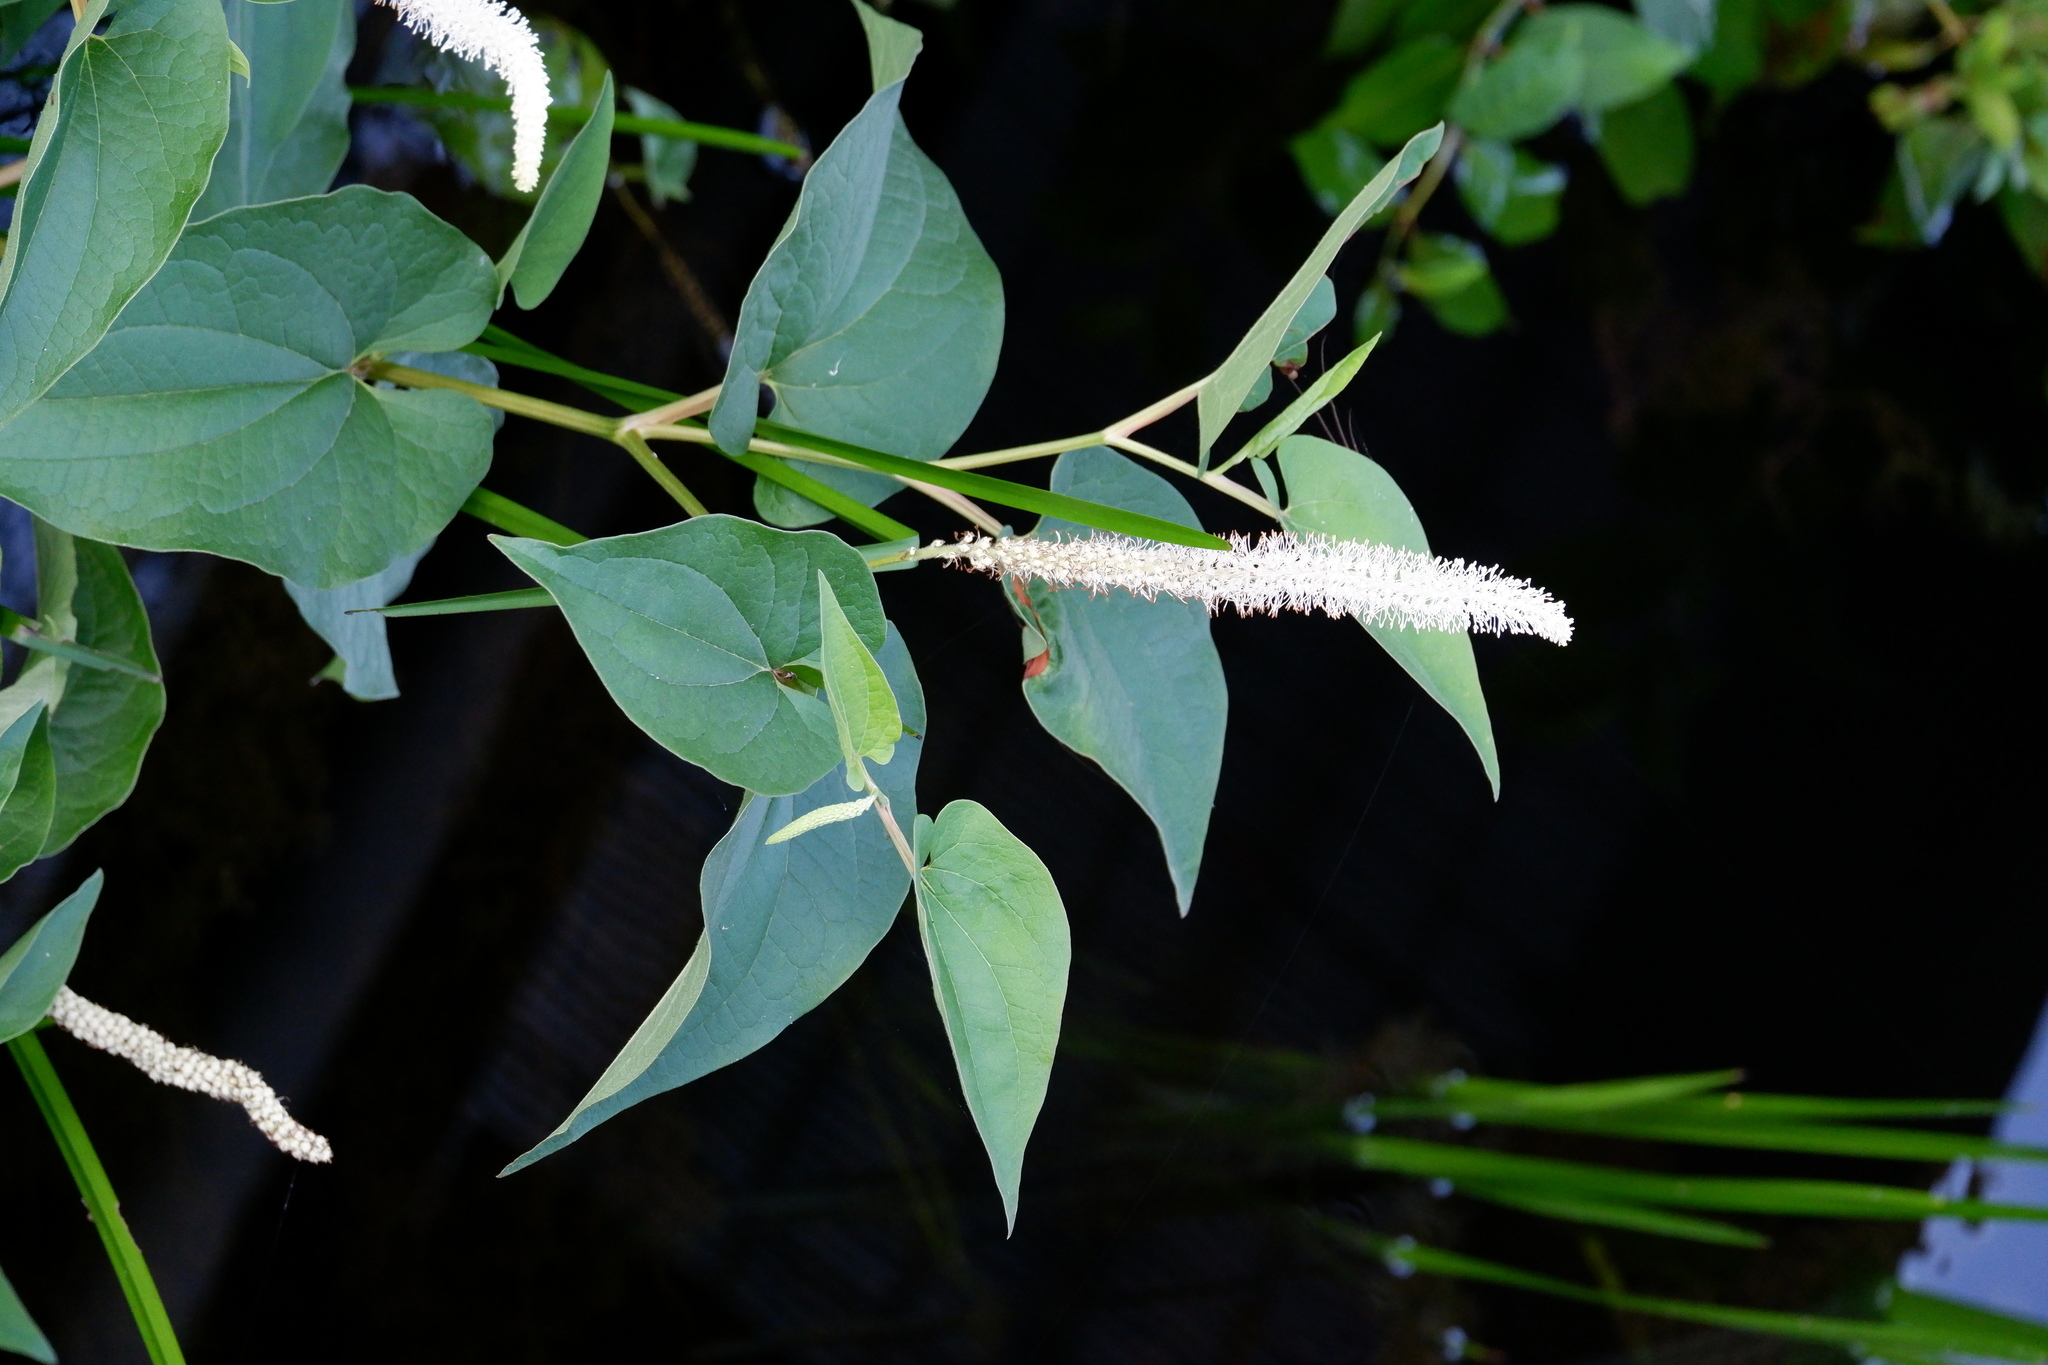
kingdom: Plantae
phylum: Tracheophyta
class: Magnoliopsida
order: Piperales
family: Saururaceae
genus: Saururus
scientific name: Saururus cernuus
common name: Lizard's-tail
